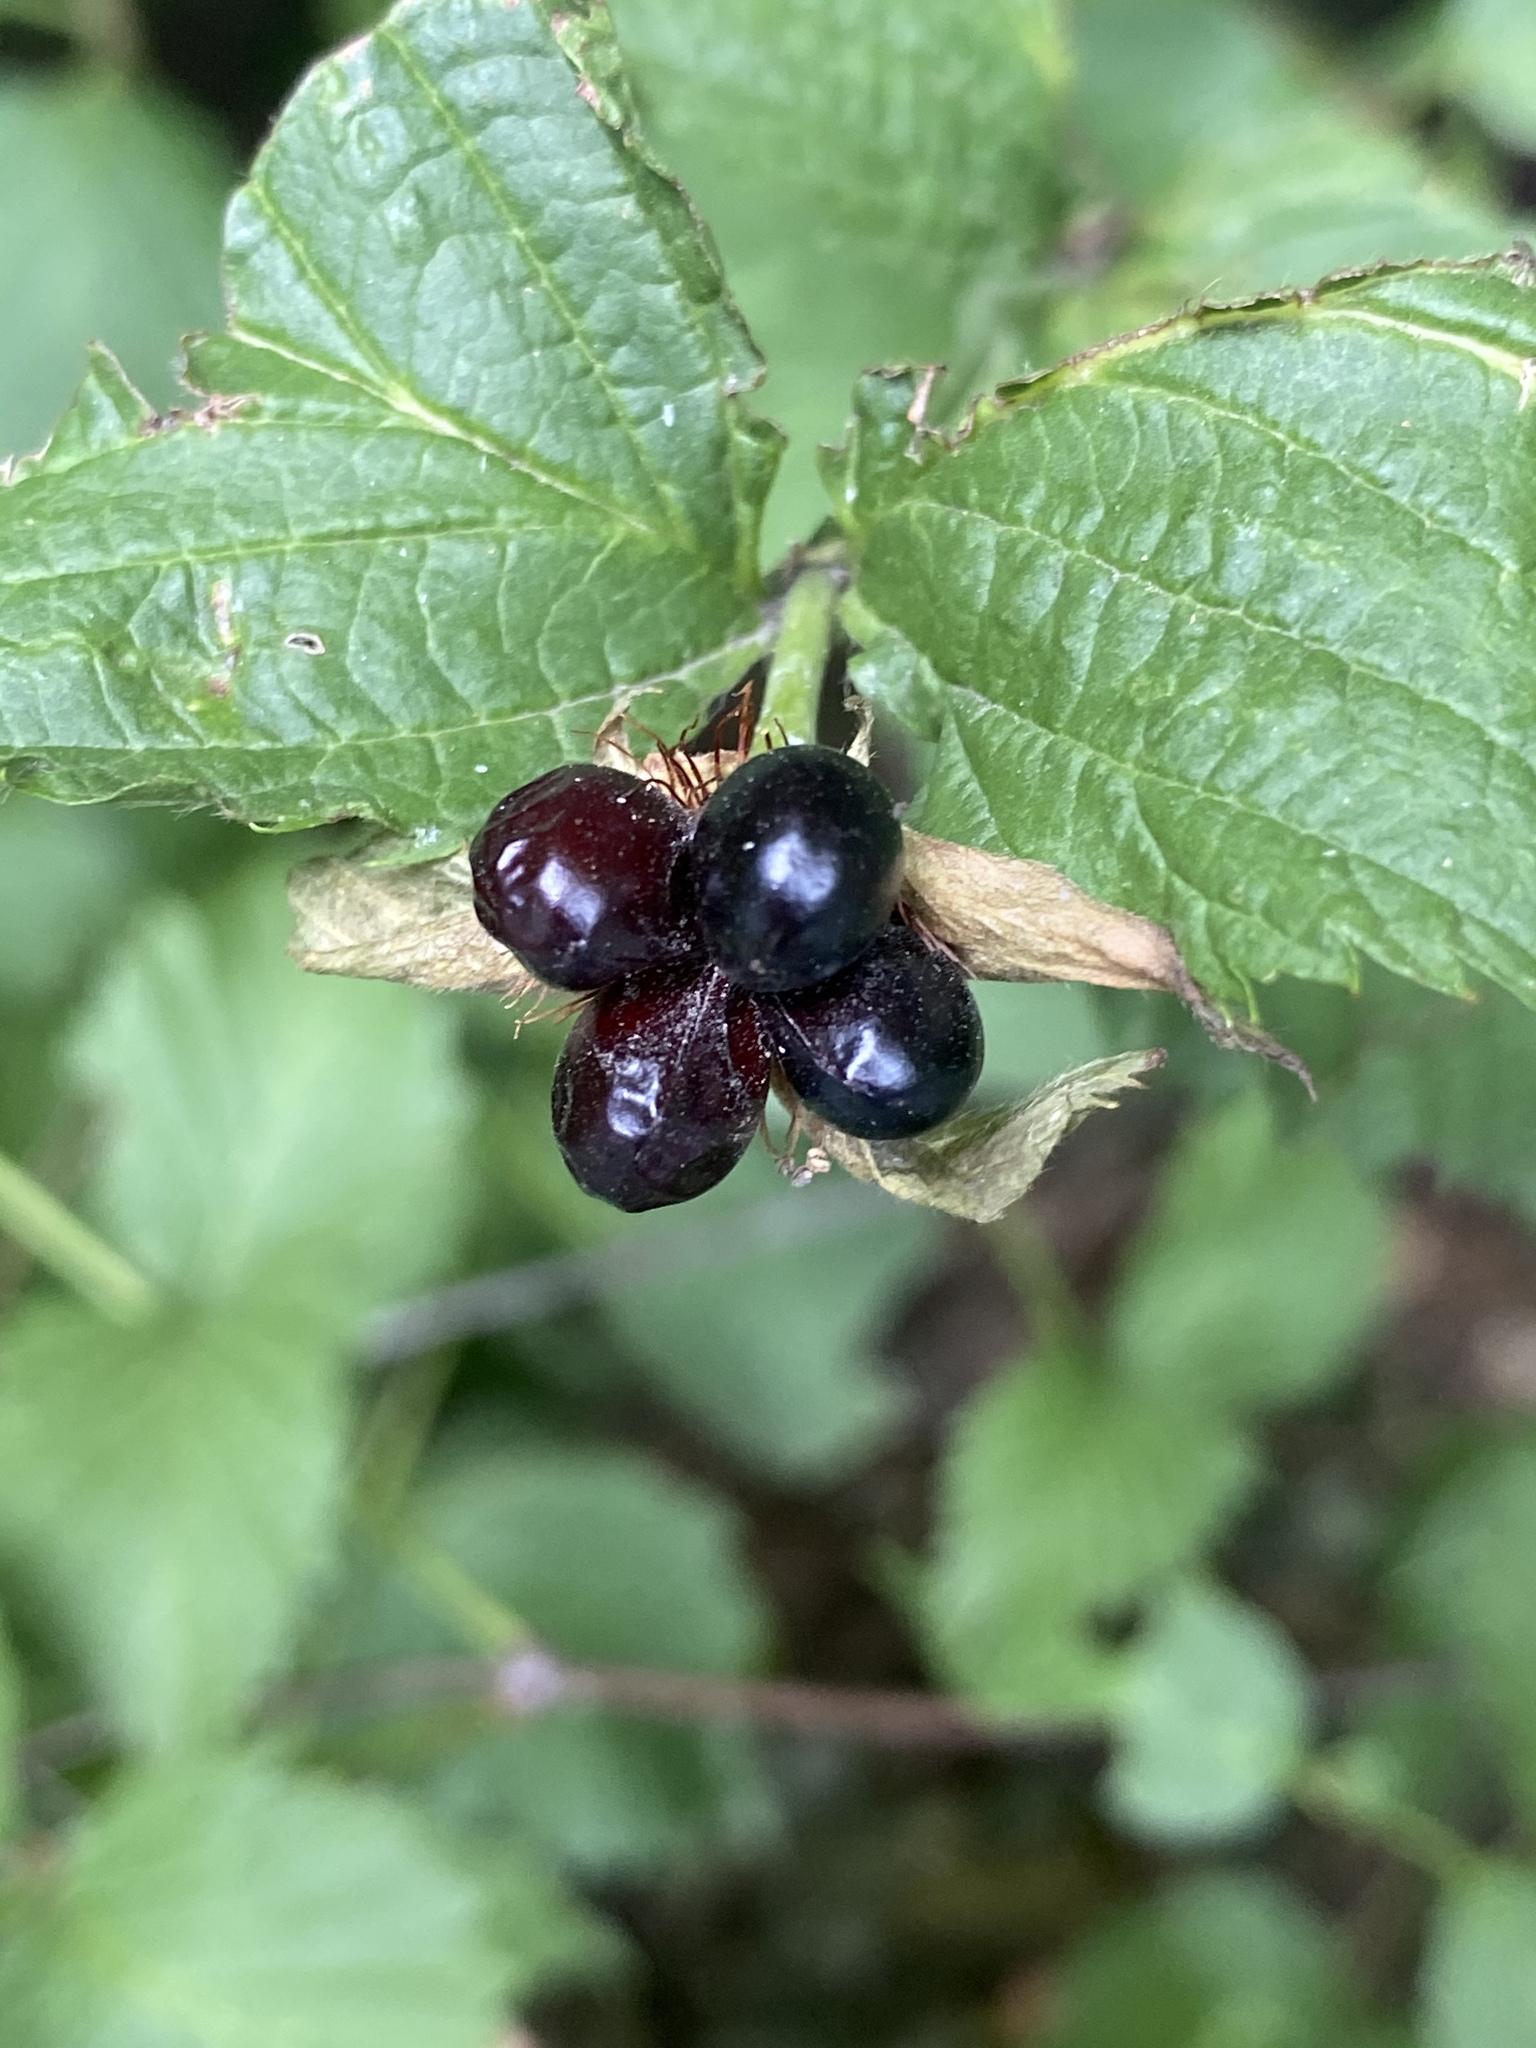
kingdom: Plantae
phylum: Tracheophyta
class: Magnoliopsida
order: Rosales
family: Rosaceae
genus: Rhodotypos
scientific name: Rhodotypos scandens
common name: Jetbead
